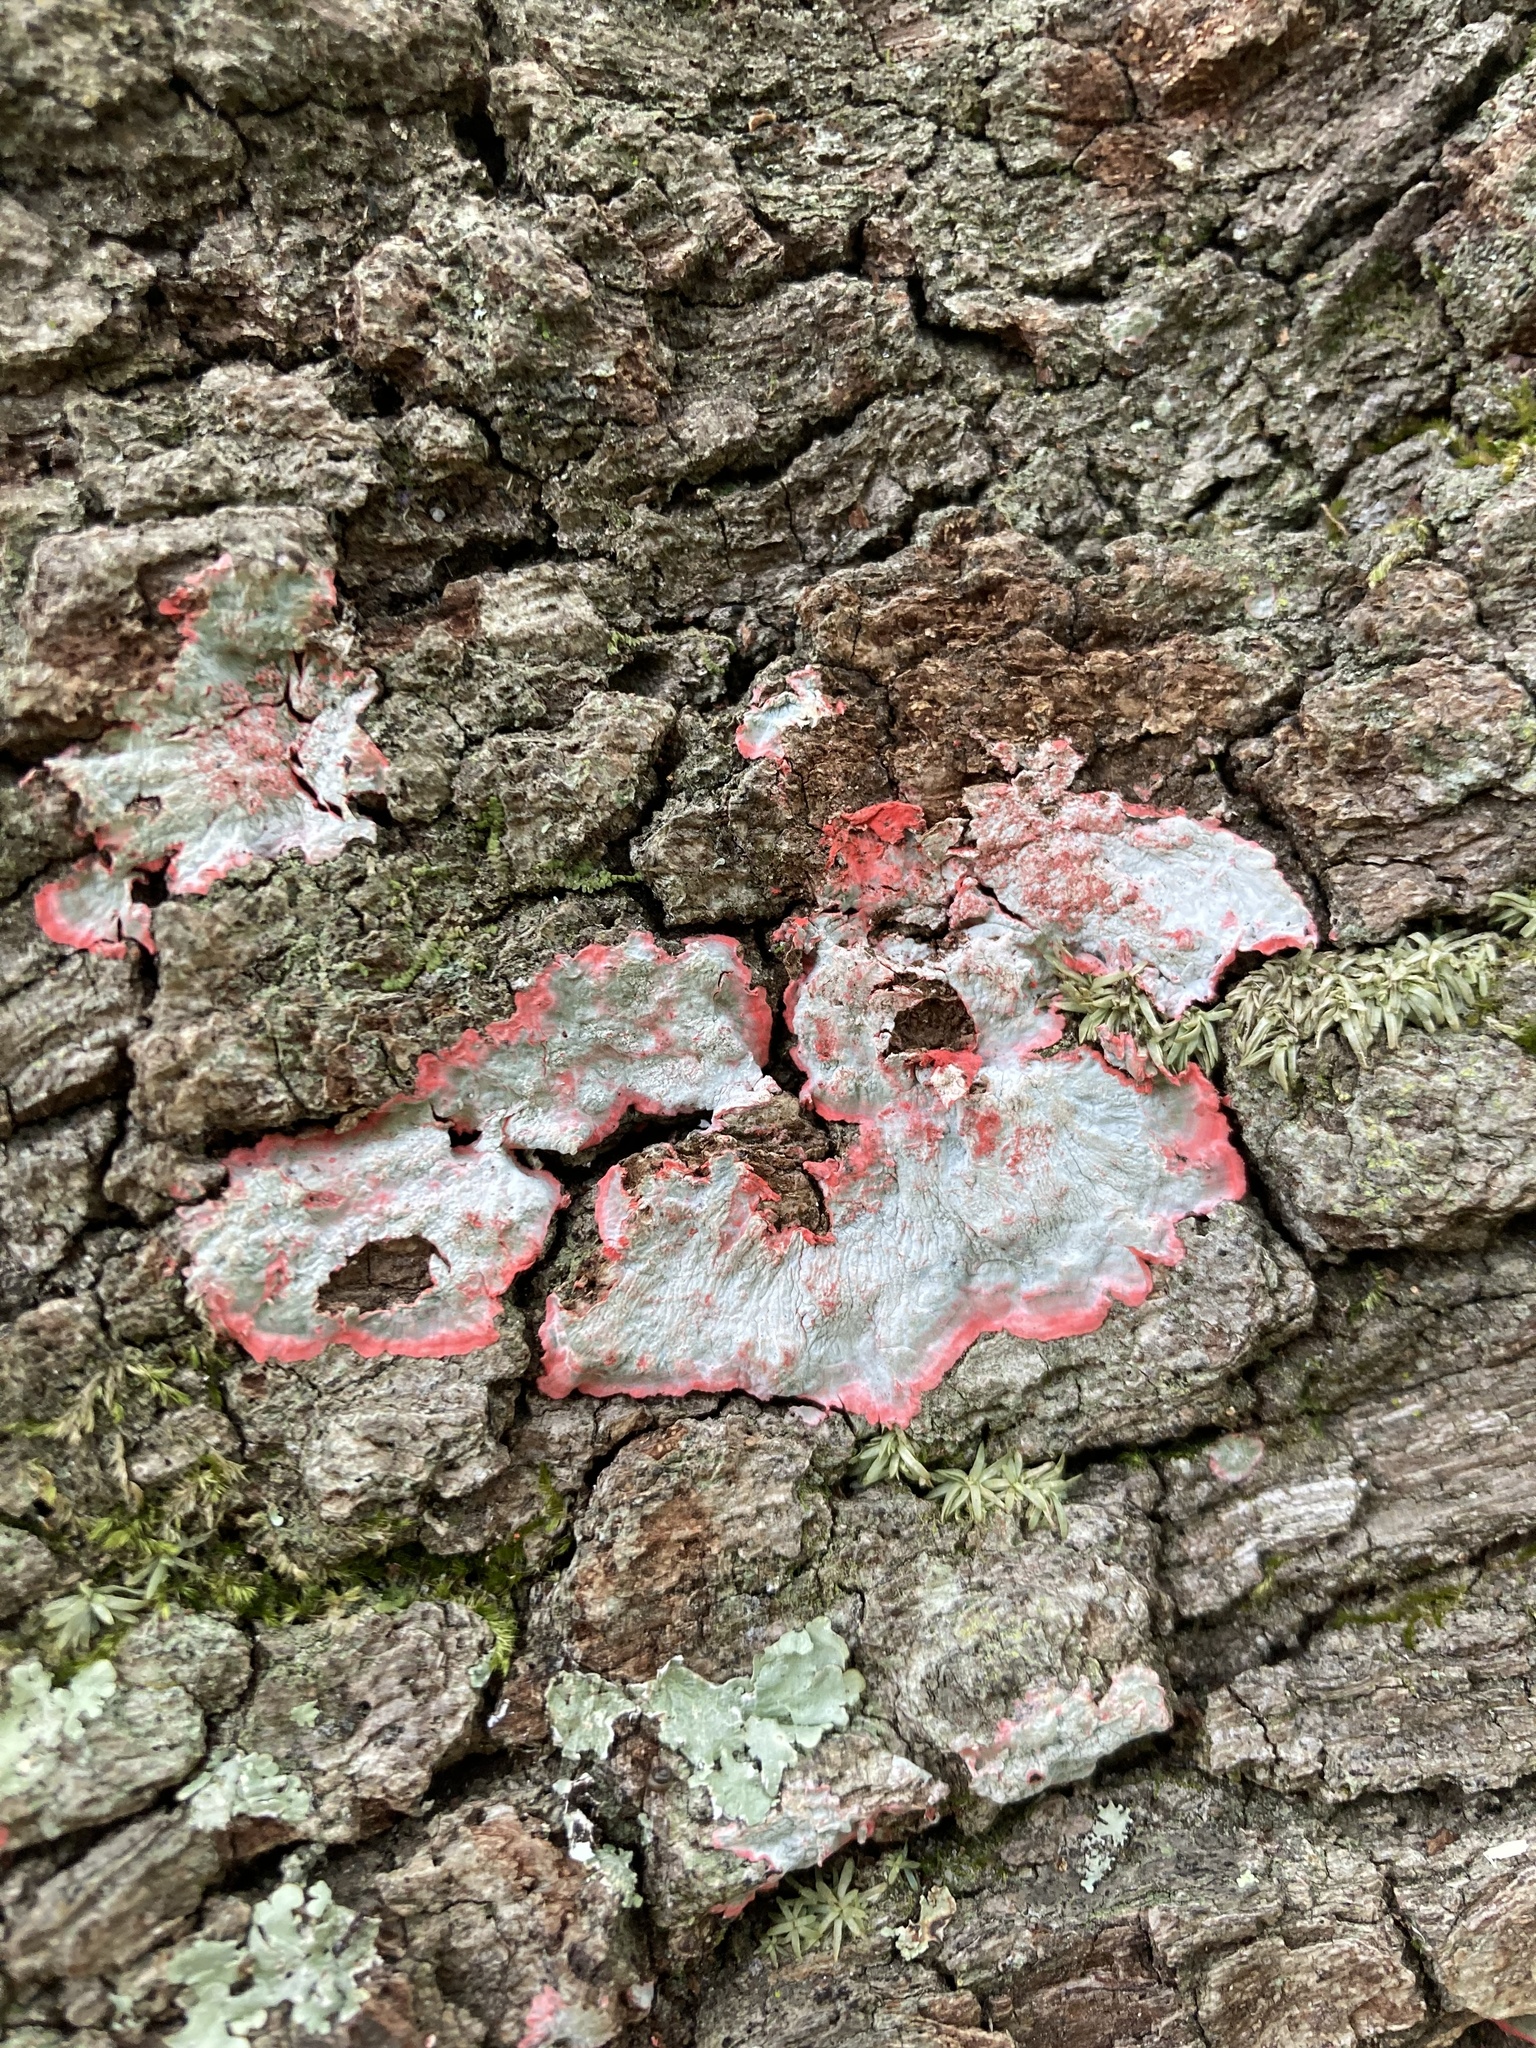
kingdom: Fungi
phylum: Ascomycota
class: Arthoniomycetes
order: Arthoniales
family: Arthoniaceae
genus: Herpothallon
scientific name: Herpothallon rubrocinctum
